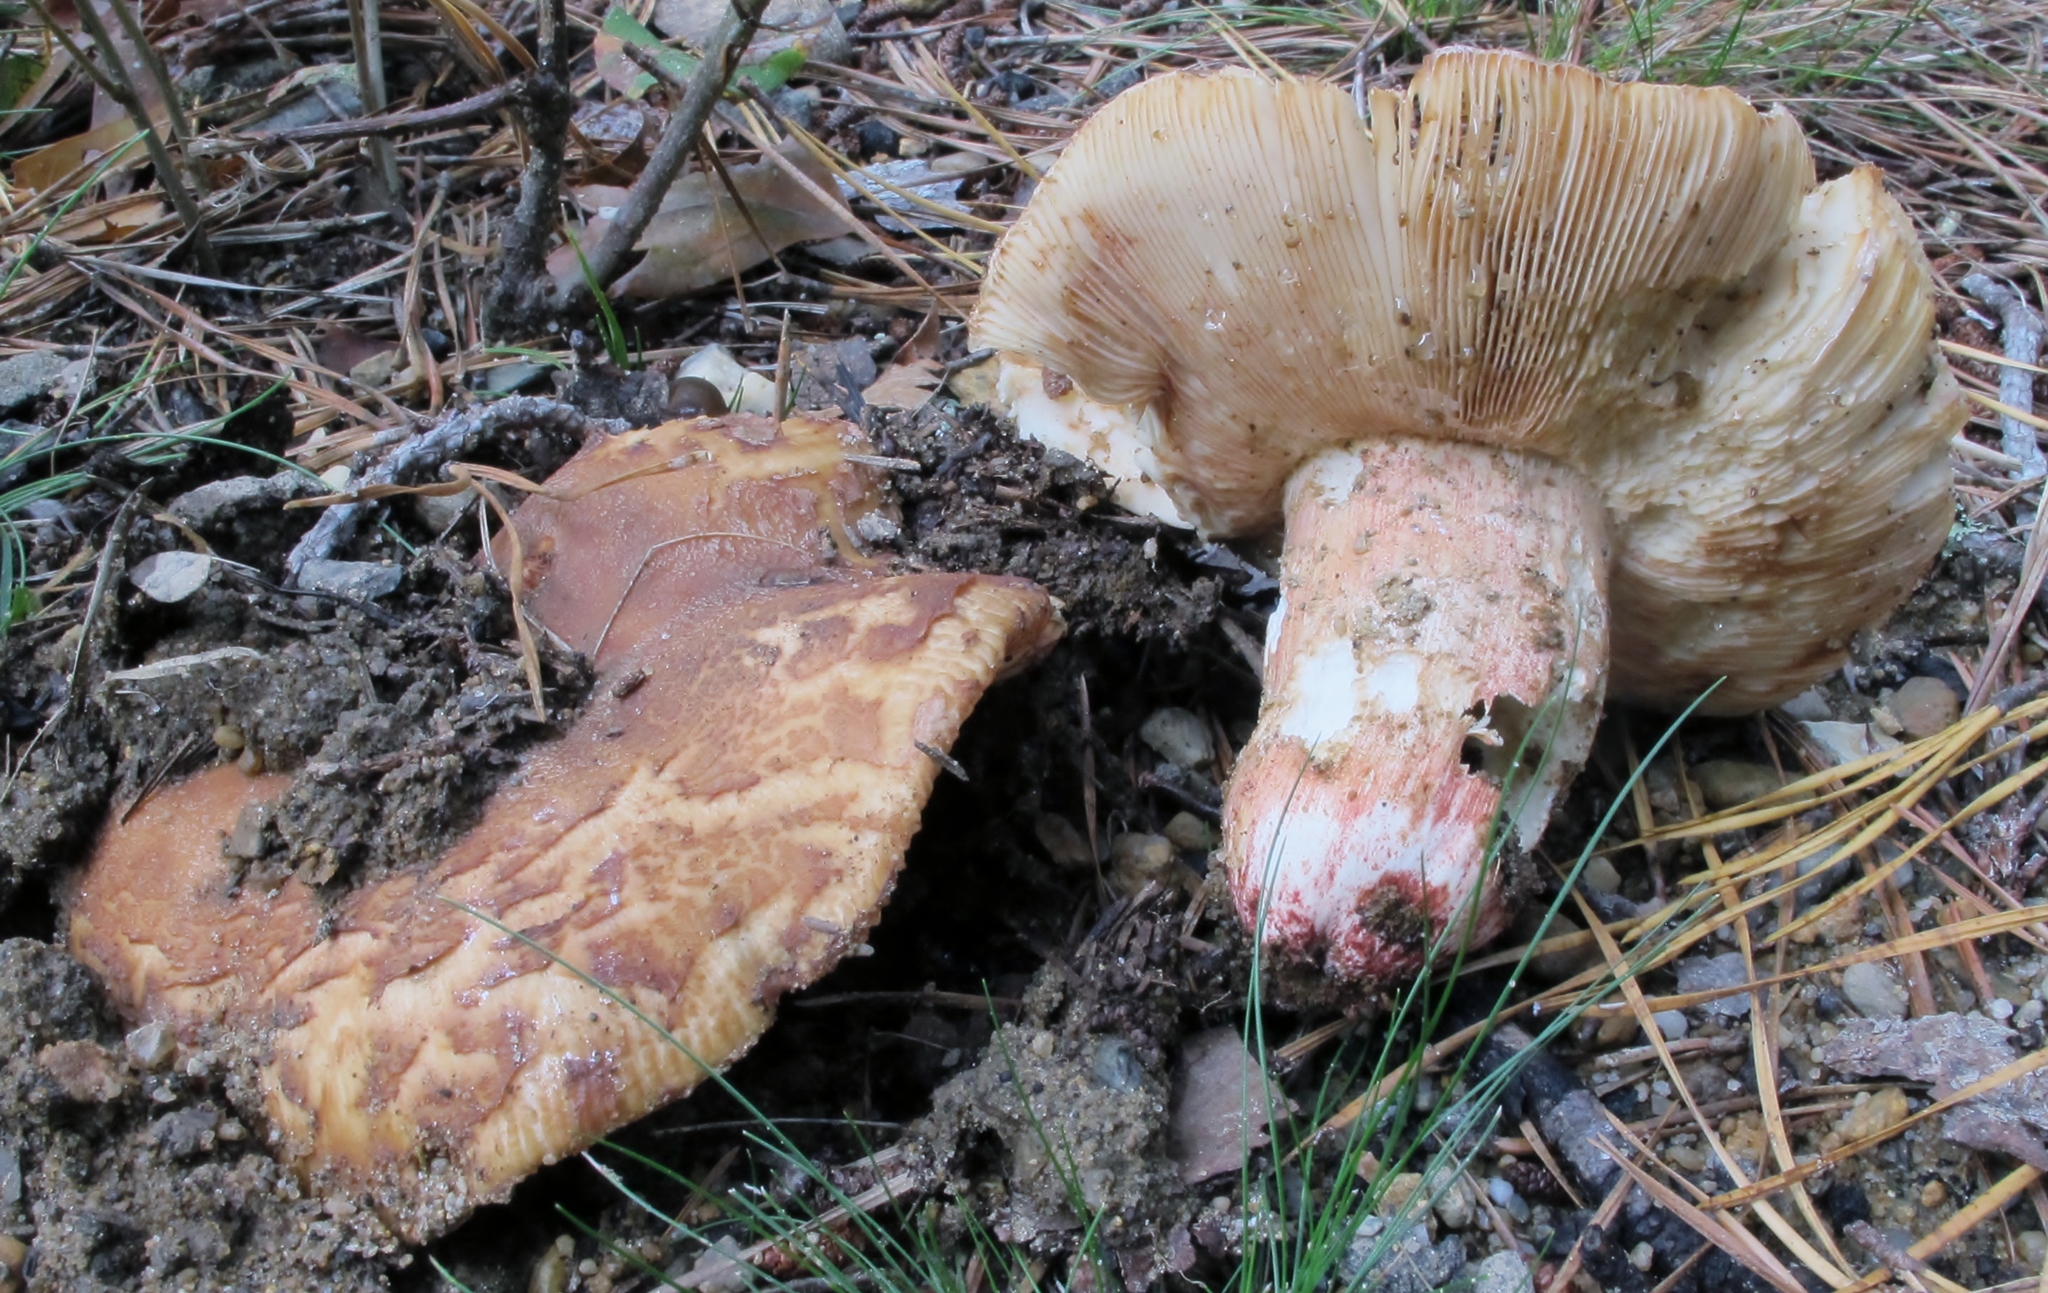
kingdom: Fungi
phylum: Basidiomycota
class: Agaricomycetes
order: Russulales
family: Russulaceae
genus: Russula
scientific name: Russula ventricosipes
